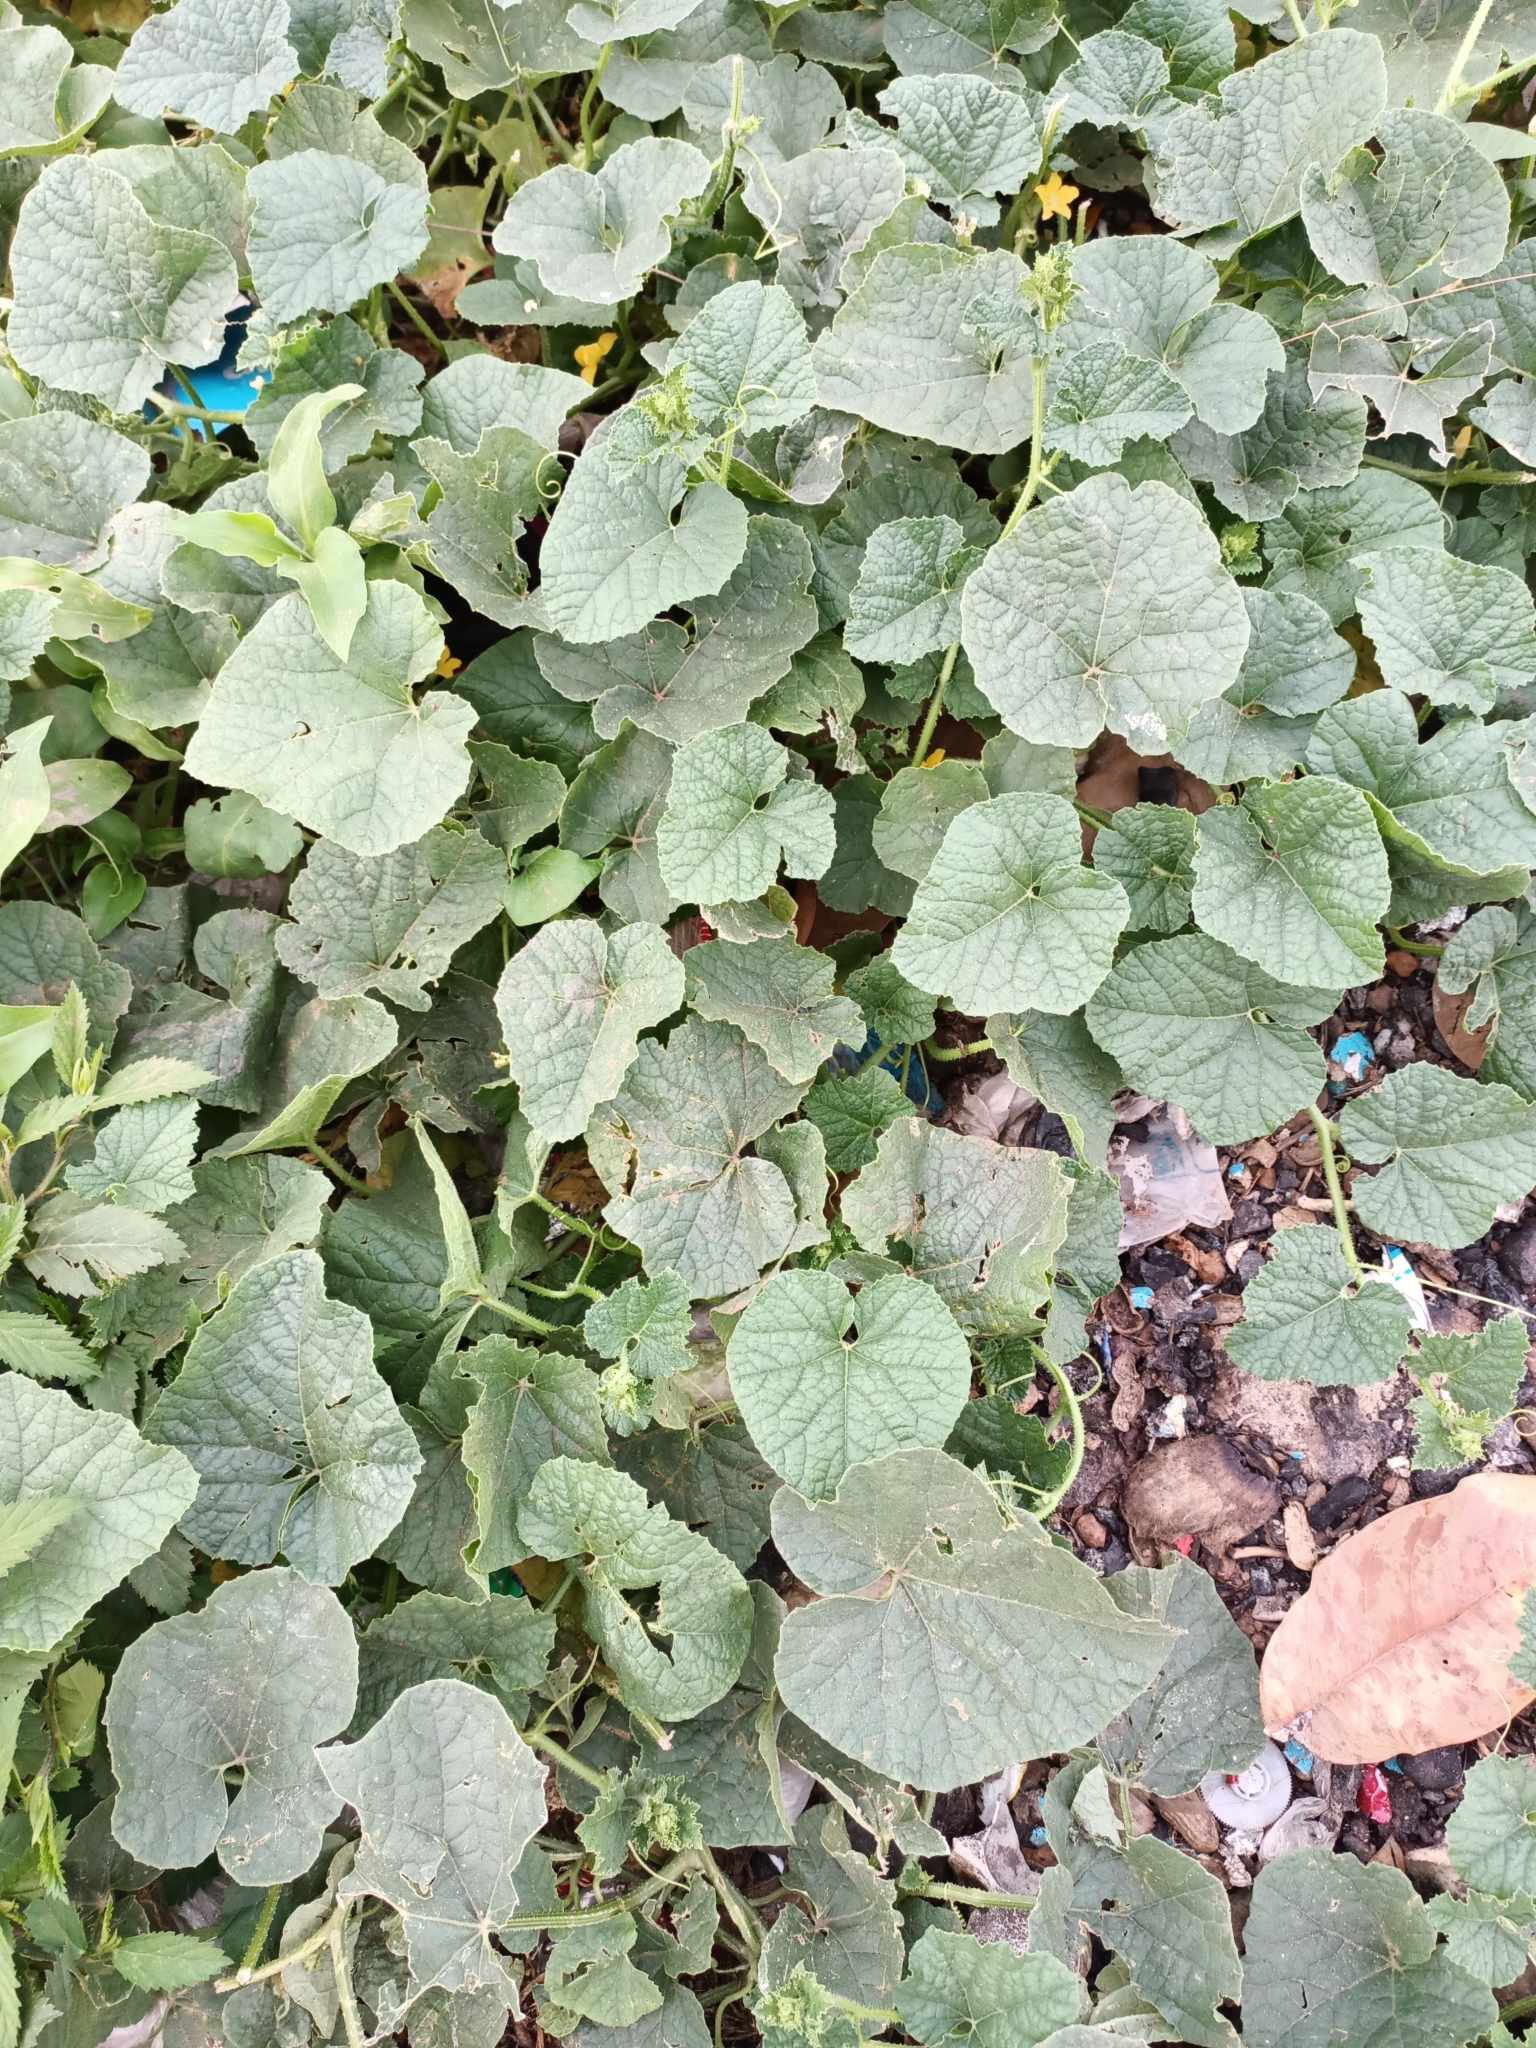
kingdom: Plantae
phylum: Tracheophyta
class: Magnoliopsida
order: Cucurbitales
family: Cucurbitaceae
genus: Cucumis
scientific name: Cucumis melo
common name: Melon
